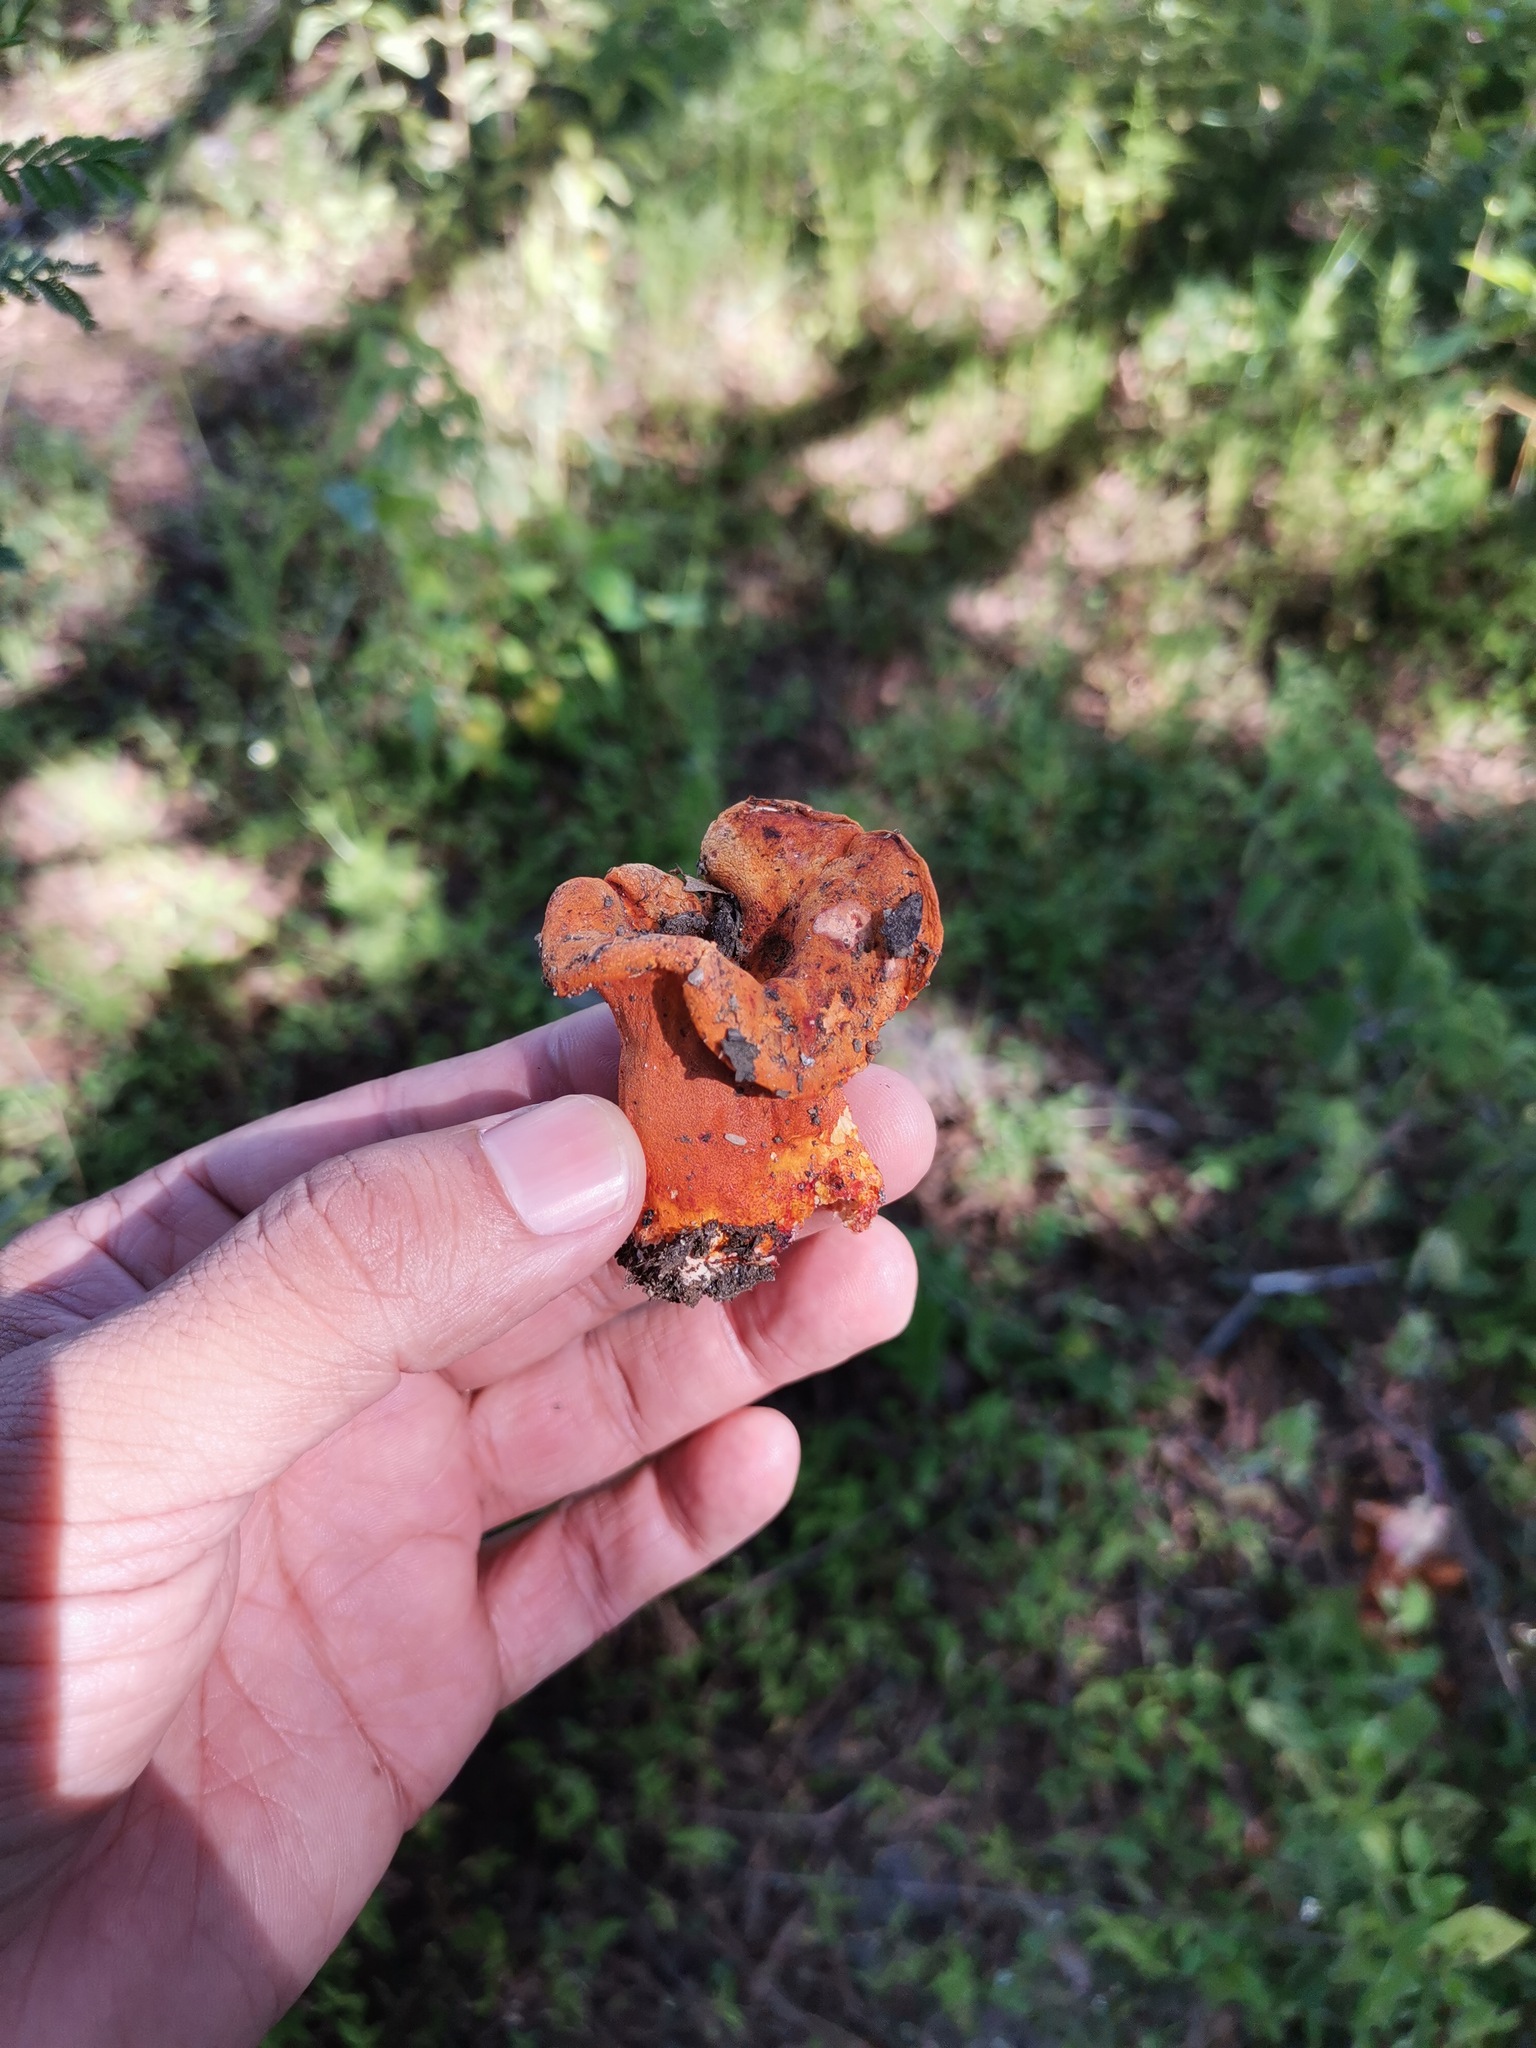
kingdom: Fungi
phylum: Ascomycota
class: Sordariomycetes
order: Hypocreales
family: Hypocreaceae
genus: Hypomyces
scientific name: Hypomyces lactifluorum
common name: Lobster mushroom
